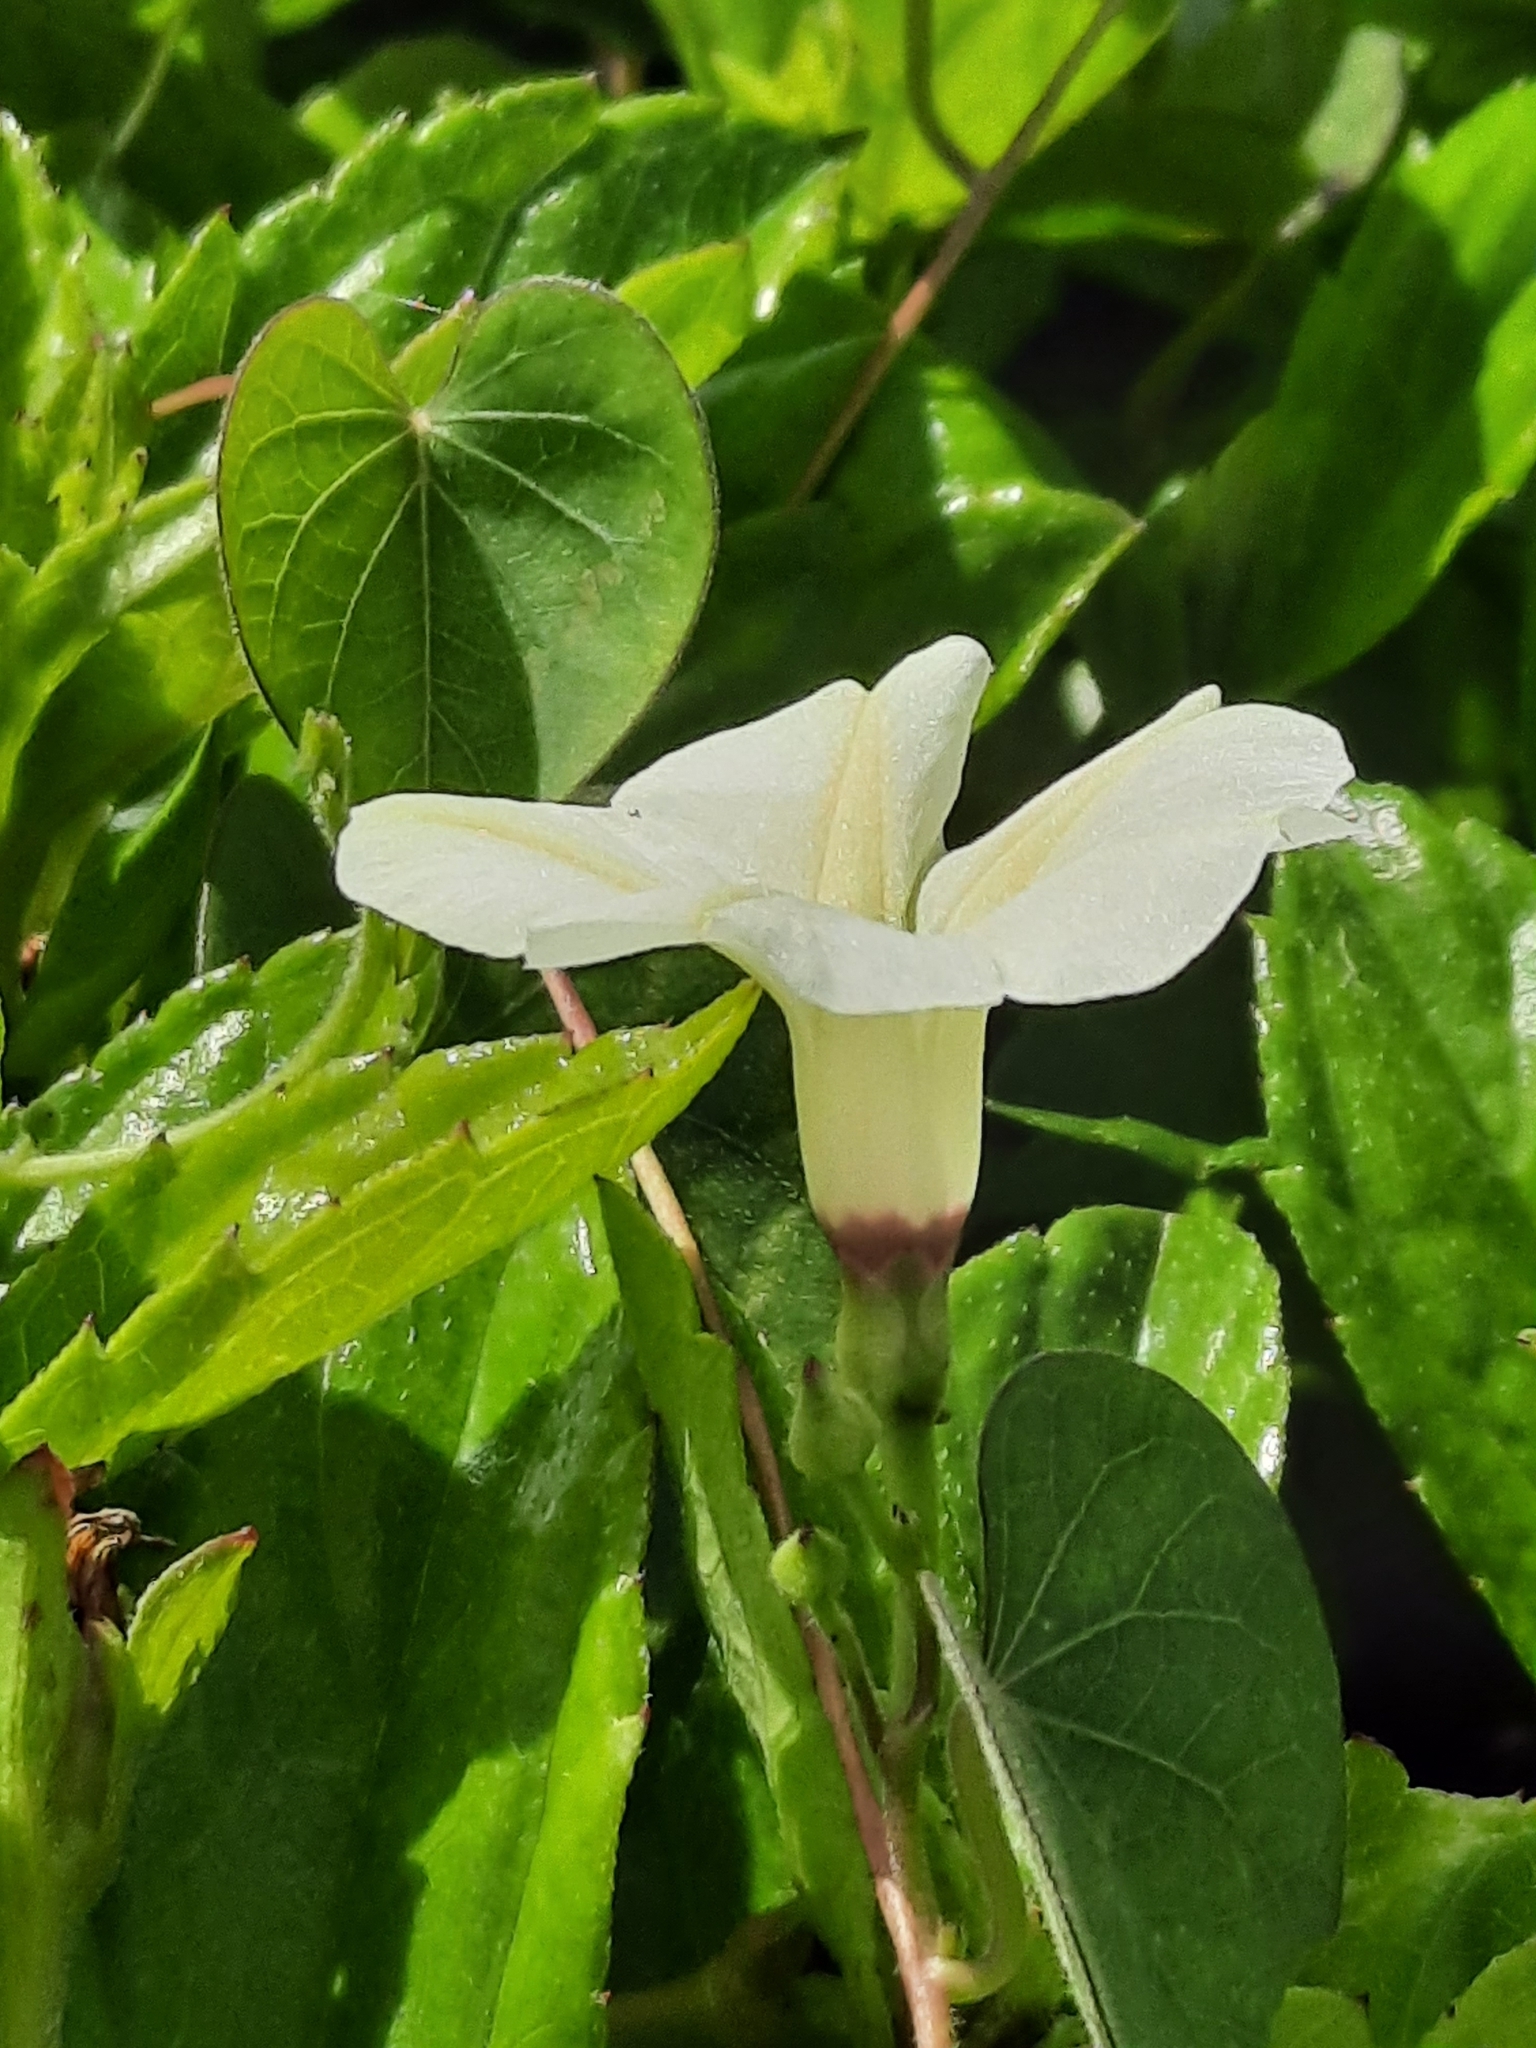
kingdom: Plantae
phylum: Tracheophyta
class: Magnoliopsida
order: Solanales
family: Convolvulaceae
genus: Ipomoea
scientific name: Ipomoea obscura
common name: Obscure morning-glory
